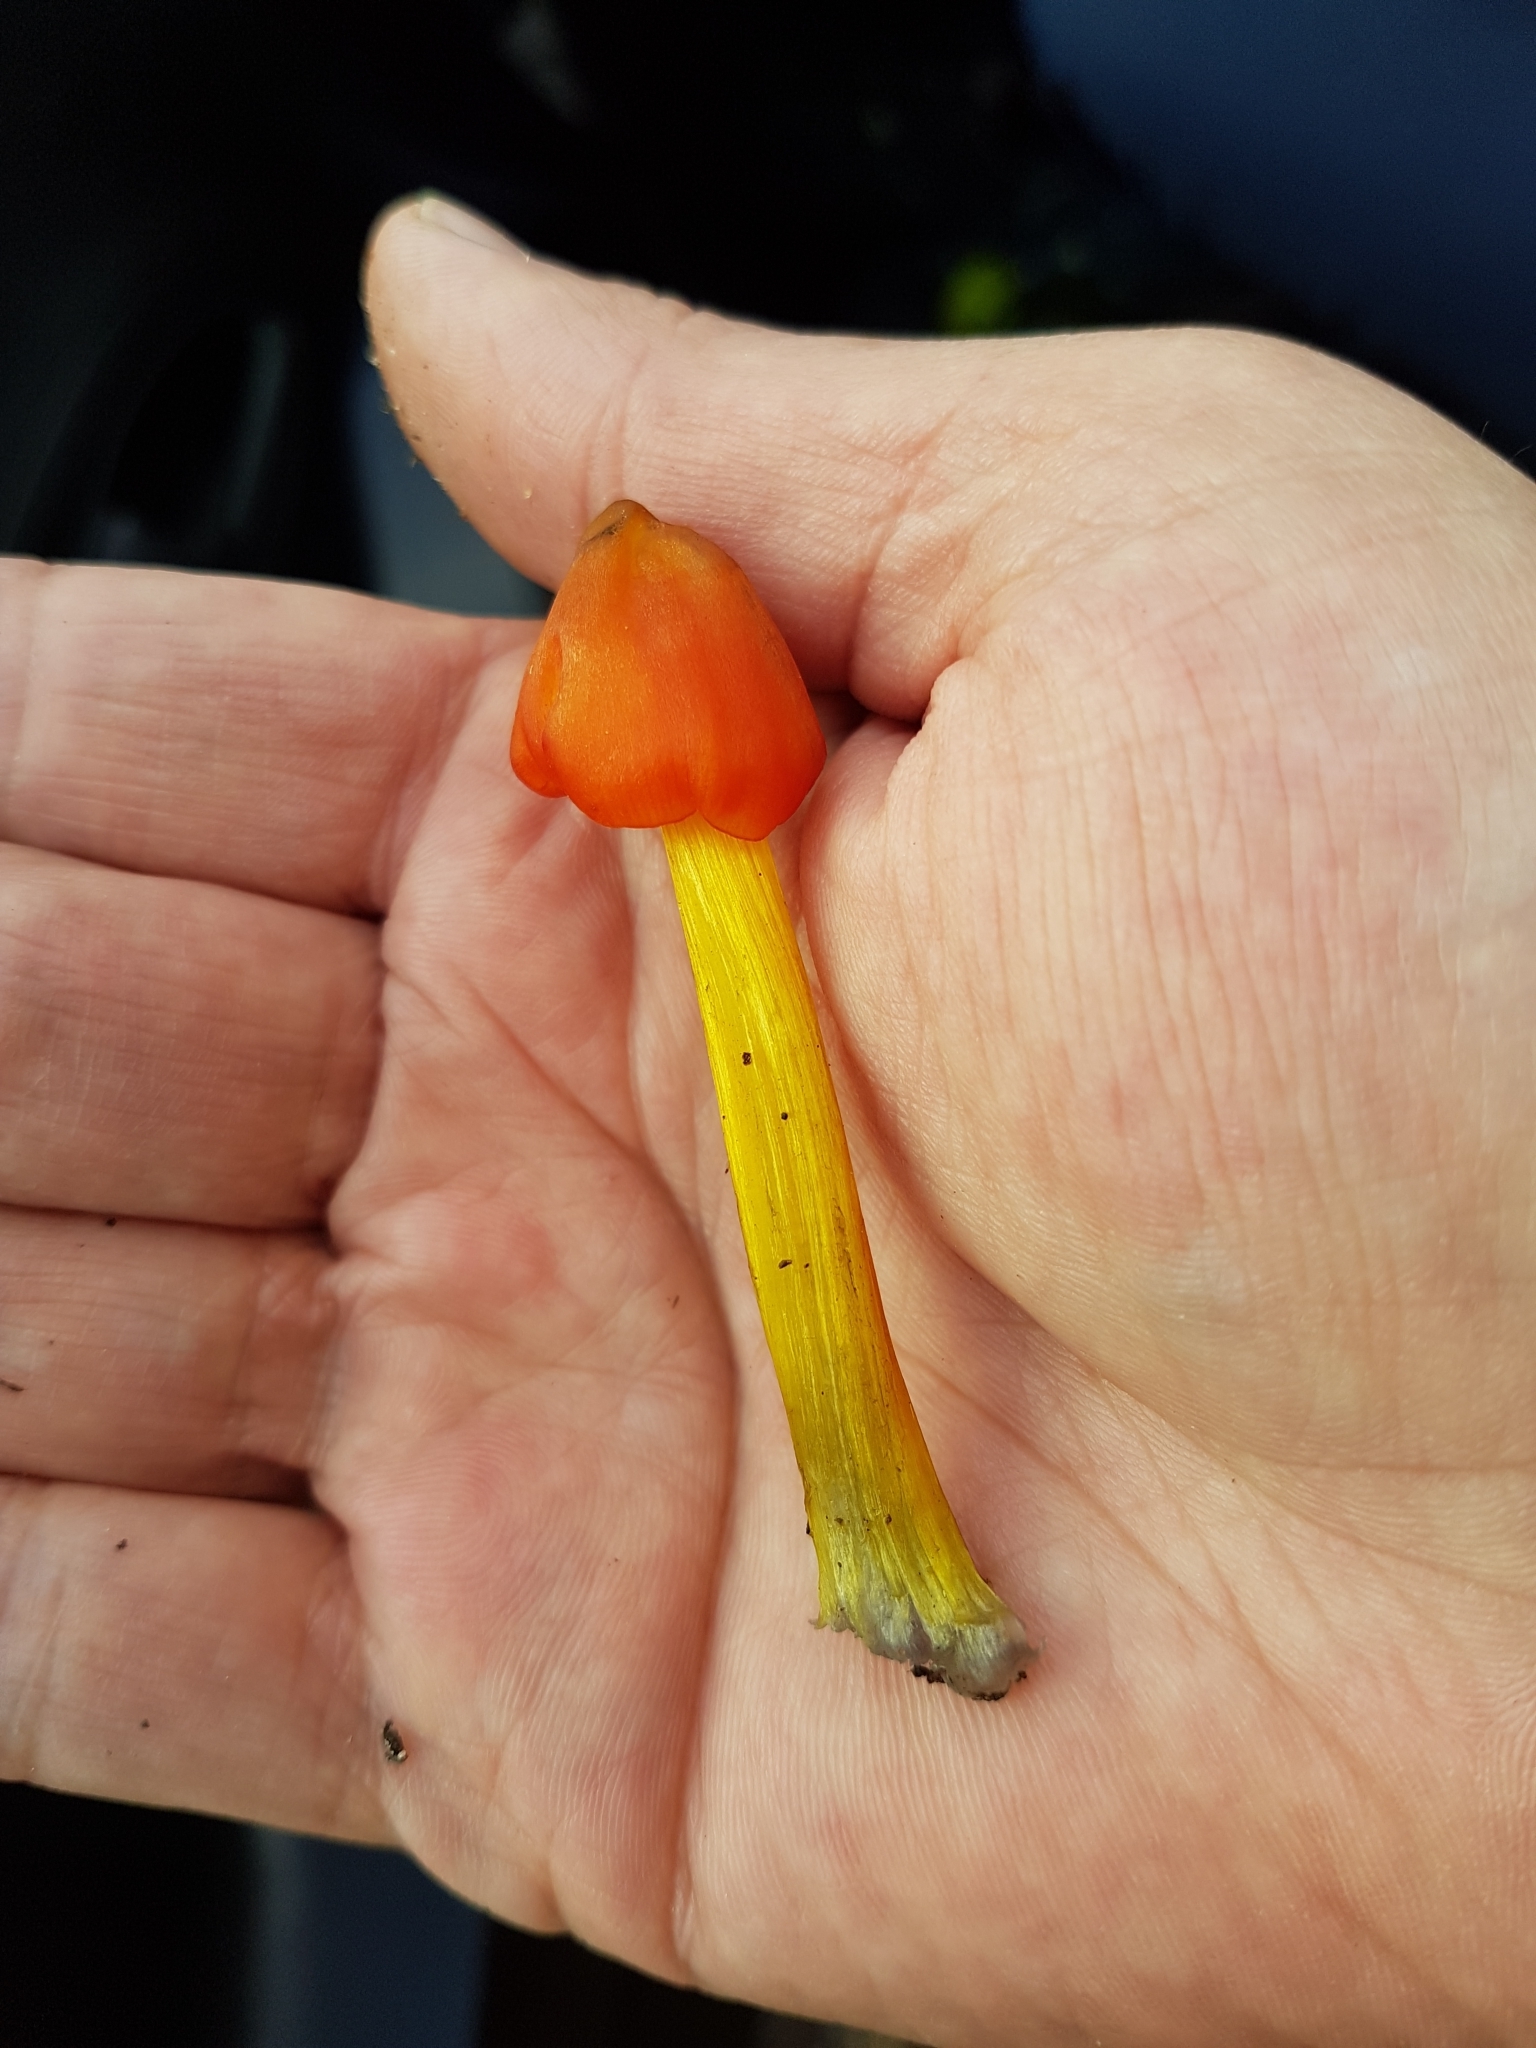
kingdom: Fungi
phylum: Basidiomycota
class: Agaricomycetes
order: Agaricales
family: Hygrophoraceae
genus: Hygrocybe
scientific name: Hygrocybe conica
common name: Blackening wax-cap
